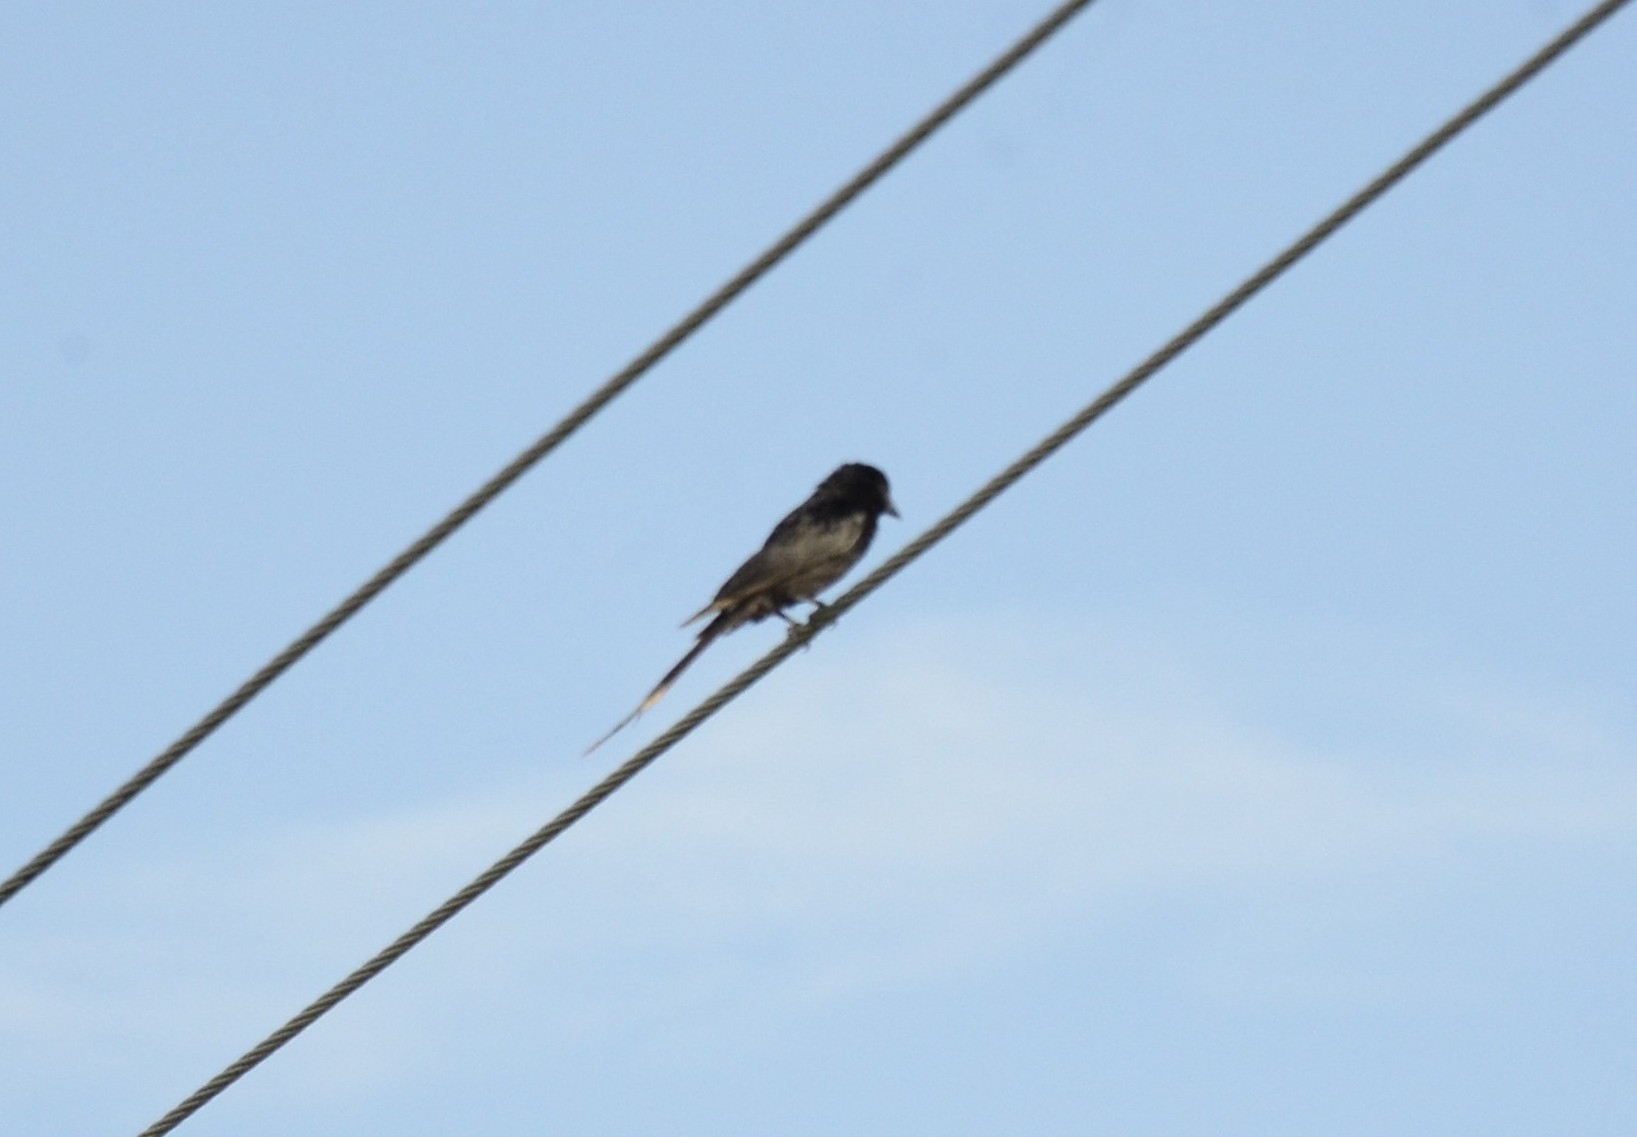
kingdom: Animalia
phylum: Chordata
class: Aves
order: Passeriformes
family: Dicruridae
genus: Dicrurus
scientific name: Dicrurus macrocercus
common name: Black drongo
